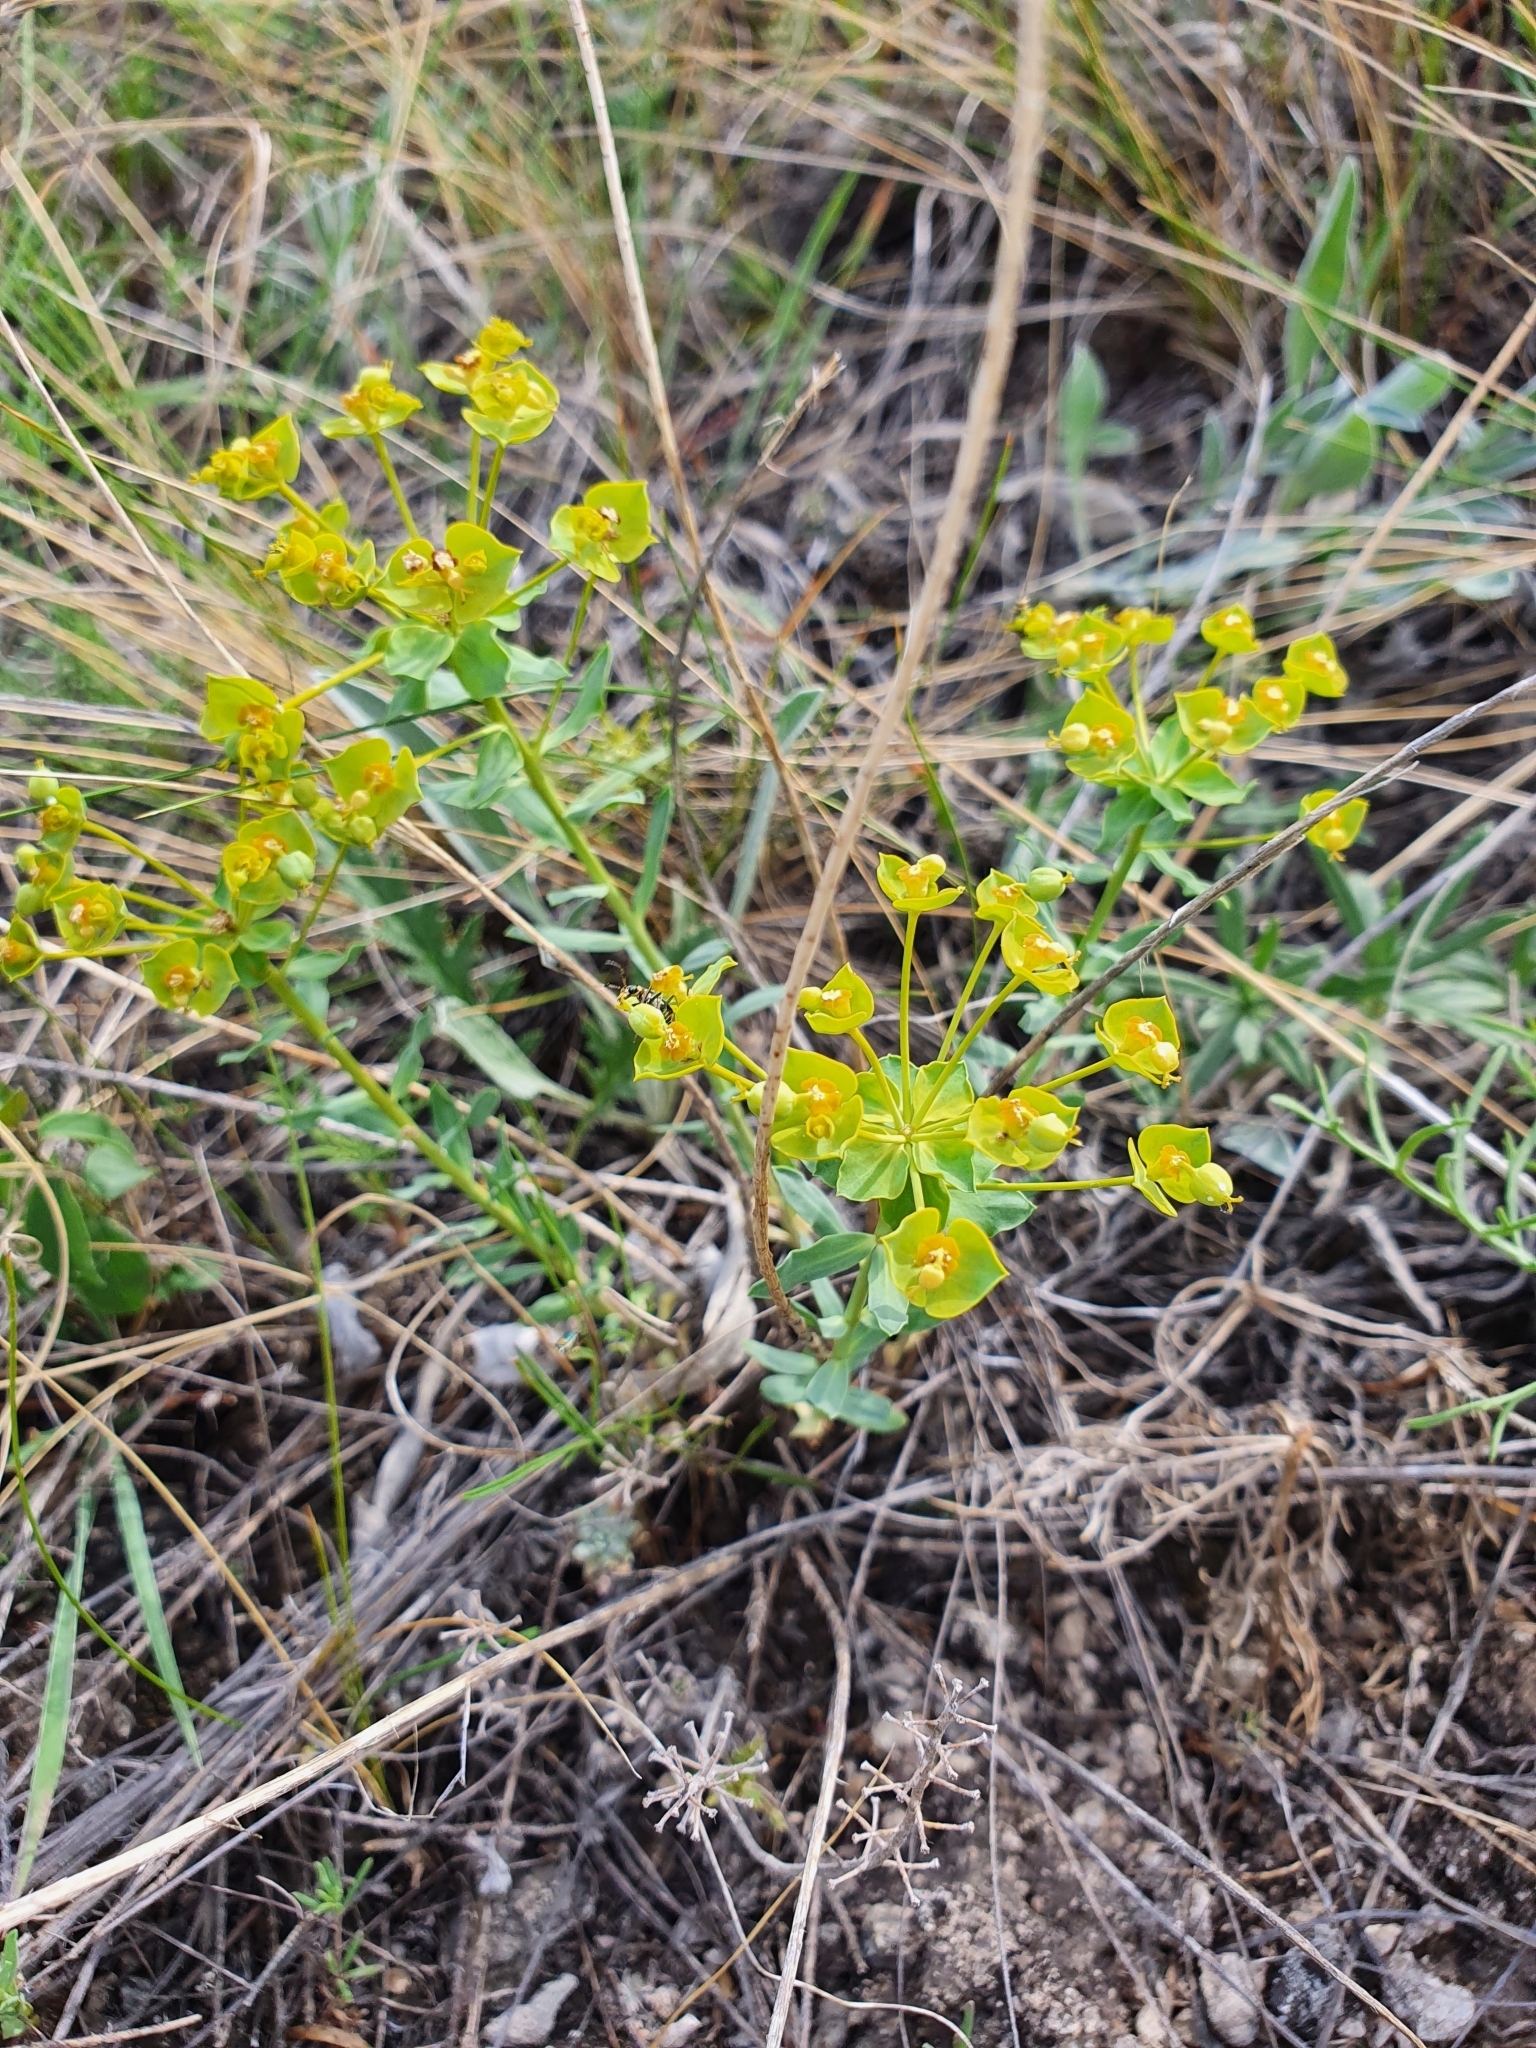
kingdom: Plantae
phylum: Tracheophyta
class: Magnoliopsida
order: Malpighiales
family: Euphorbiaceae
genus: Euphorbia
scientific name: Euphorbia seguieriana
